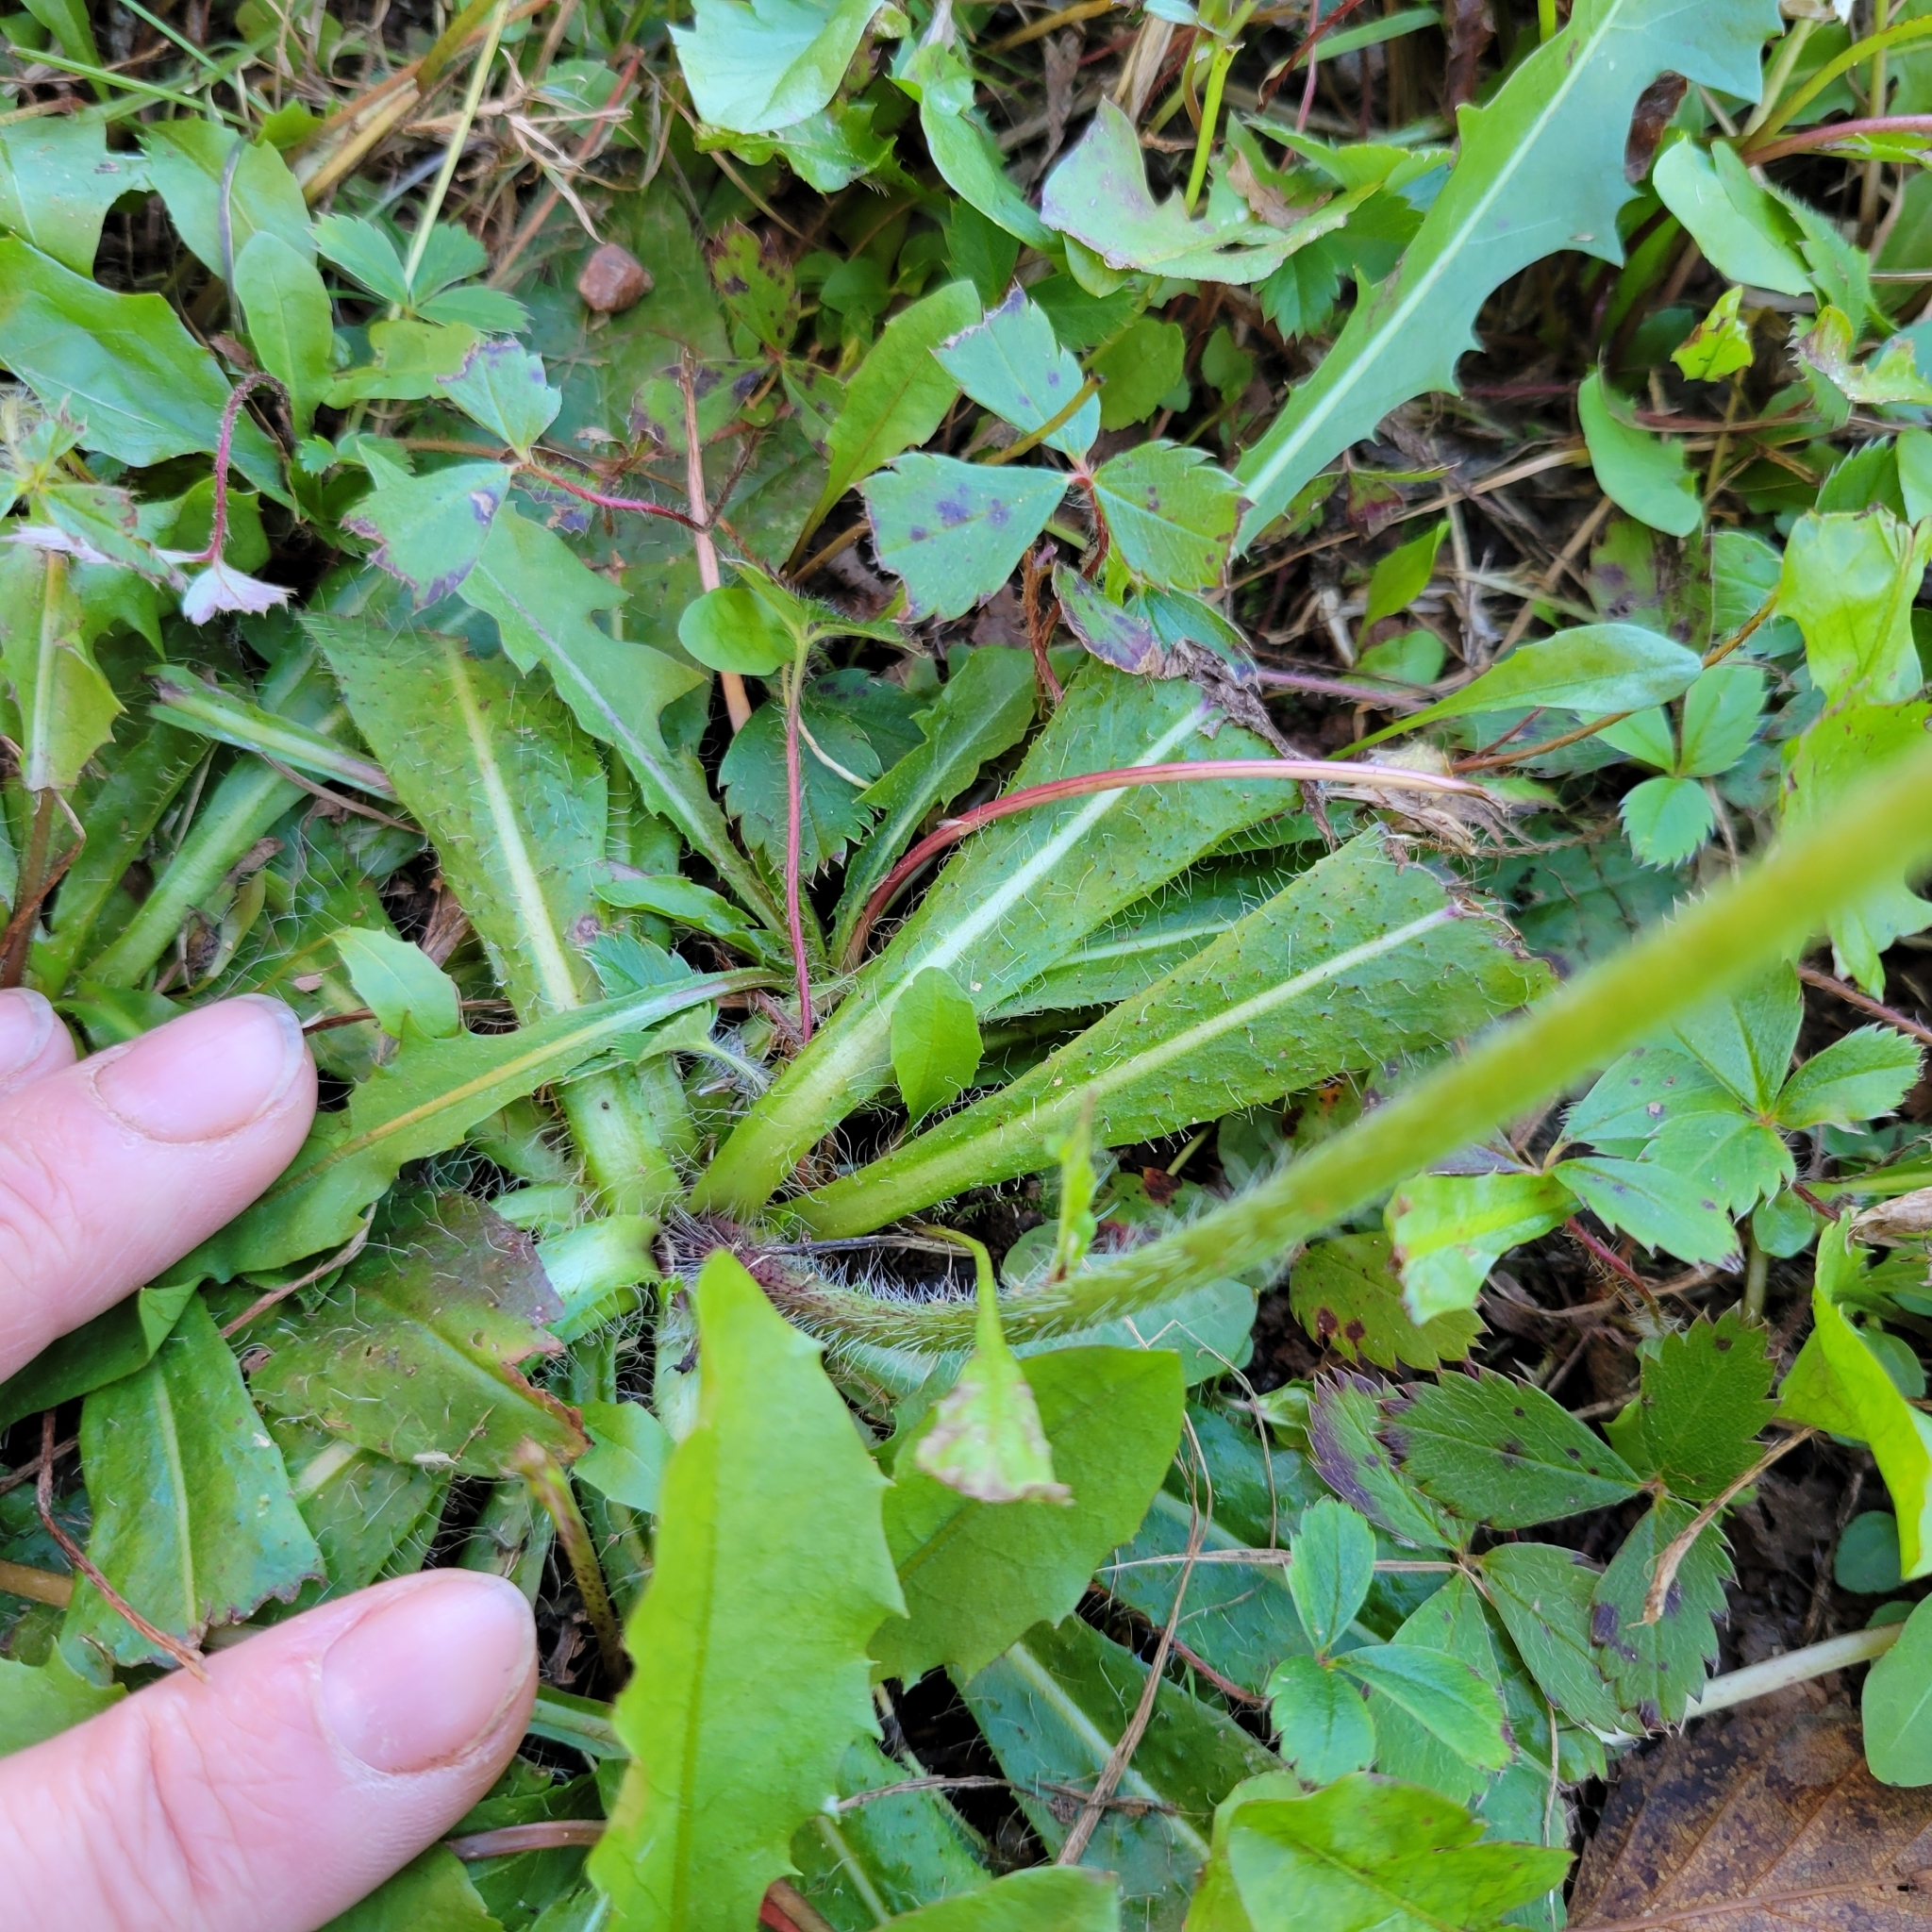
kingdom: Plantae
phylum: Tracheophyta
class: Magnoliopsida
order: Asterales
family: Asteraceae
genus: Pilosella
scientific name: Pilosella aurantiaca
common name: Fox-and-cubs
